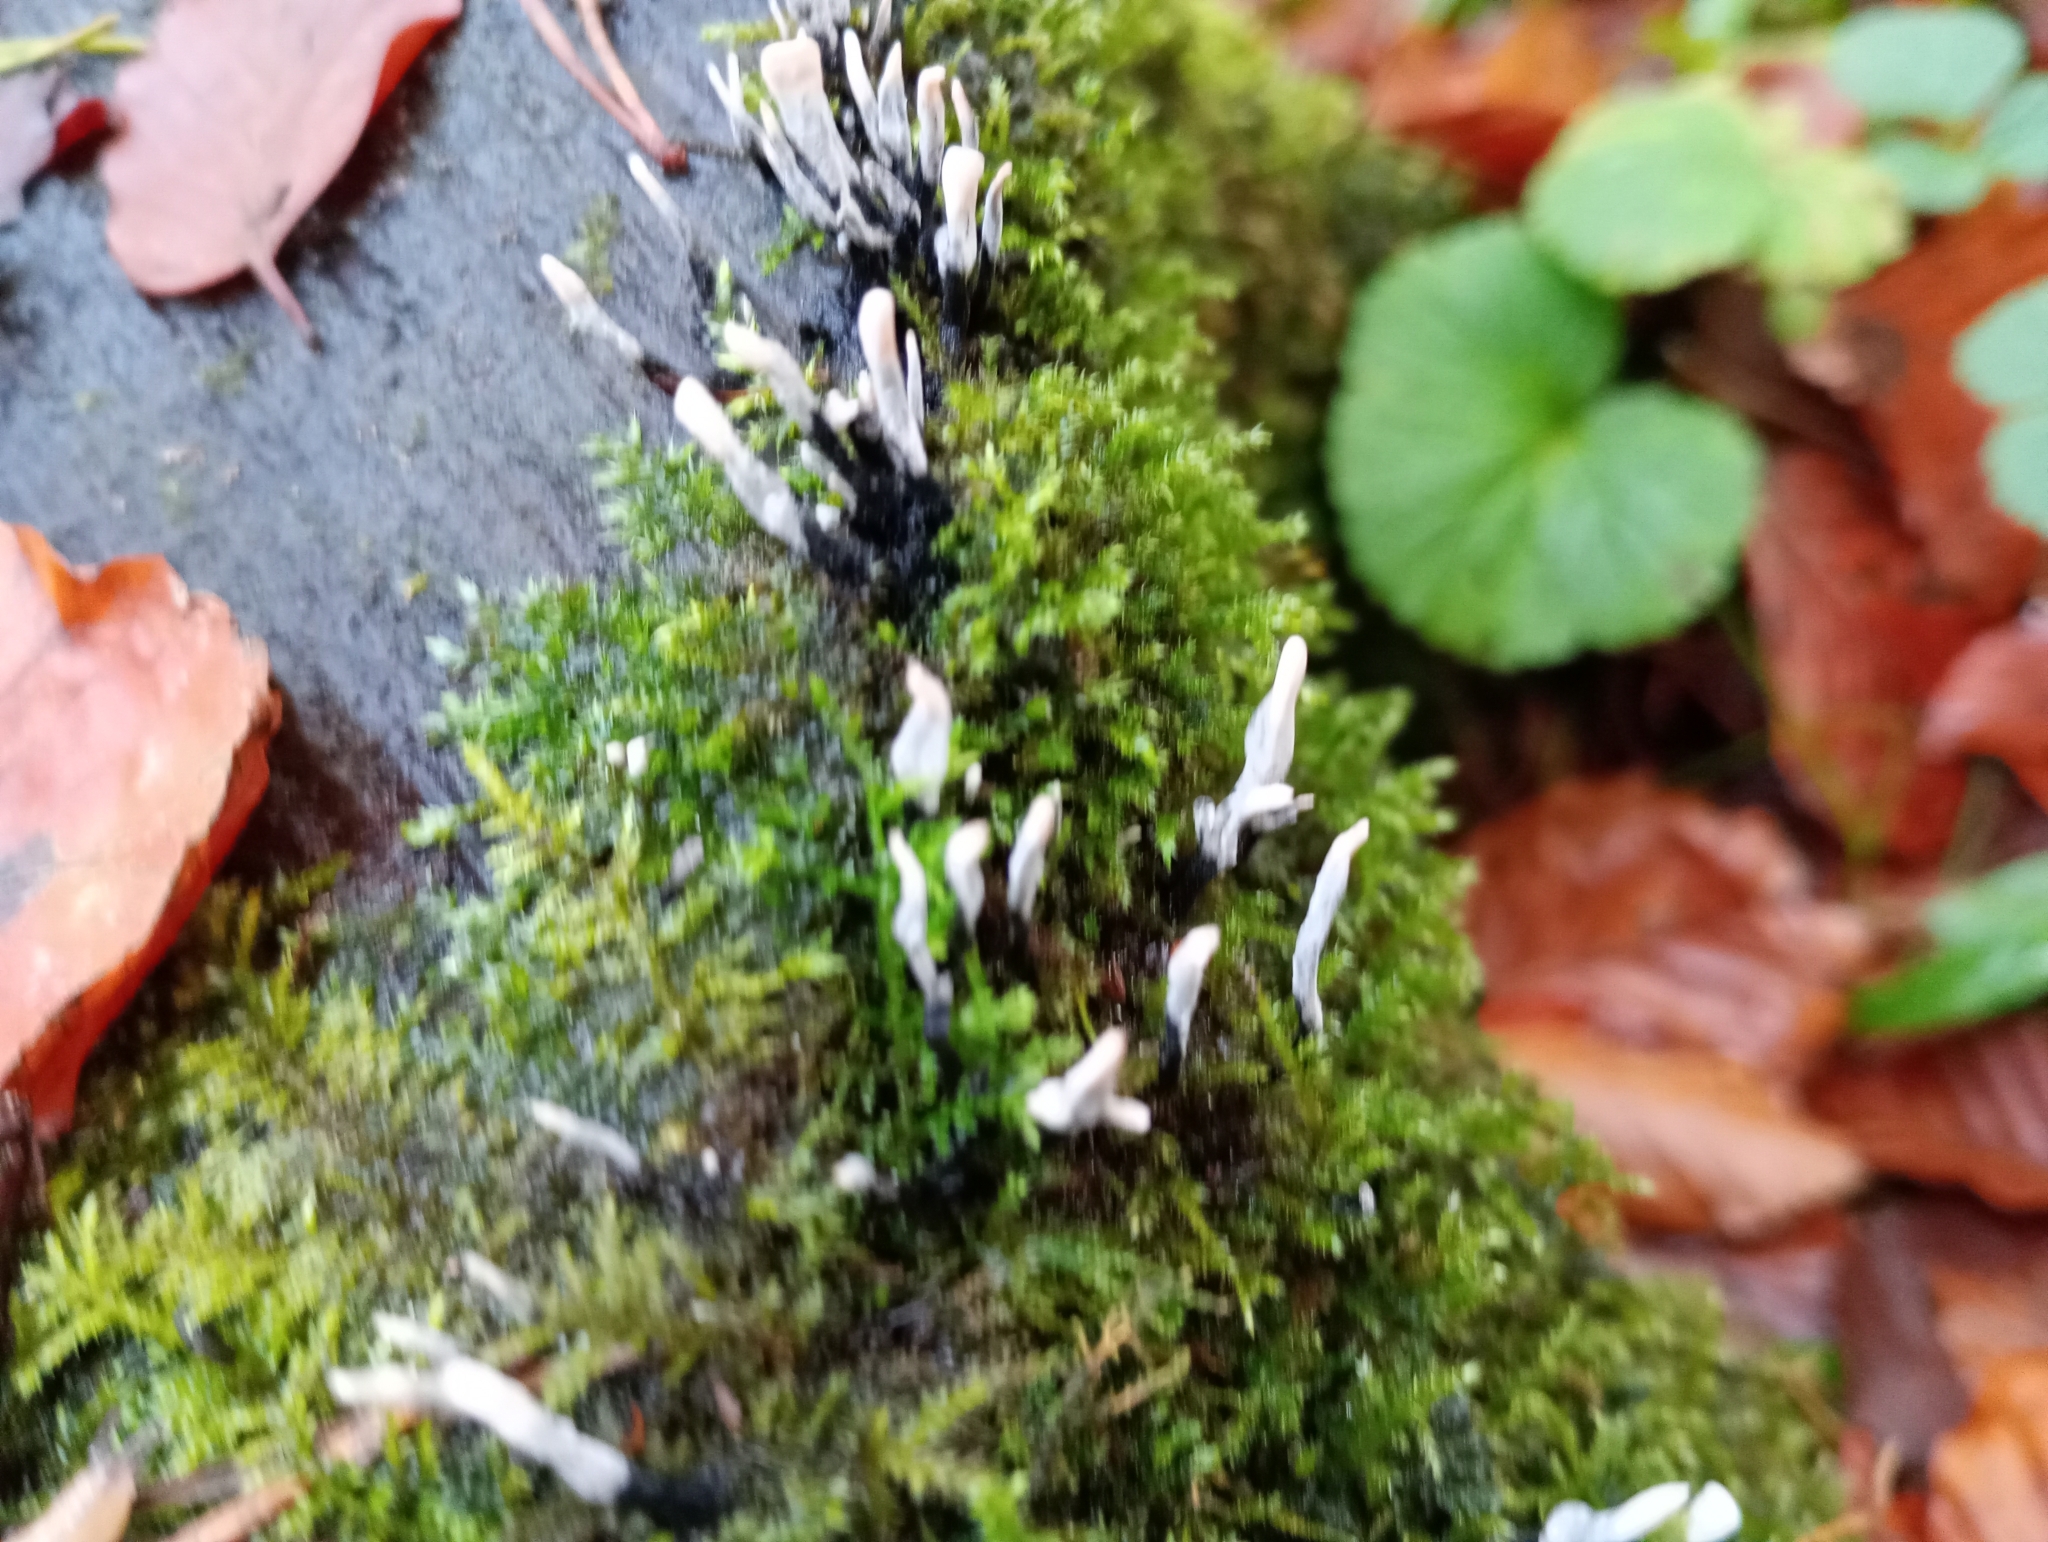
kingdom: Fungi
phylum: Ascomycota
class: Sordariomycetes
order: Xylariales
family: Xylariaceae
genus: Xylaria
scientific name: Xylaria hypoxylon
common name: Candle-snuff fungus
